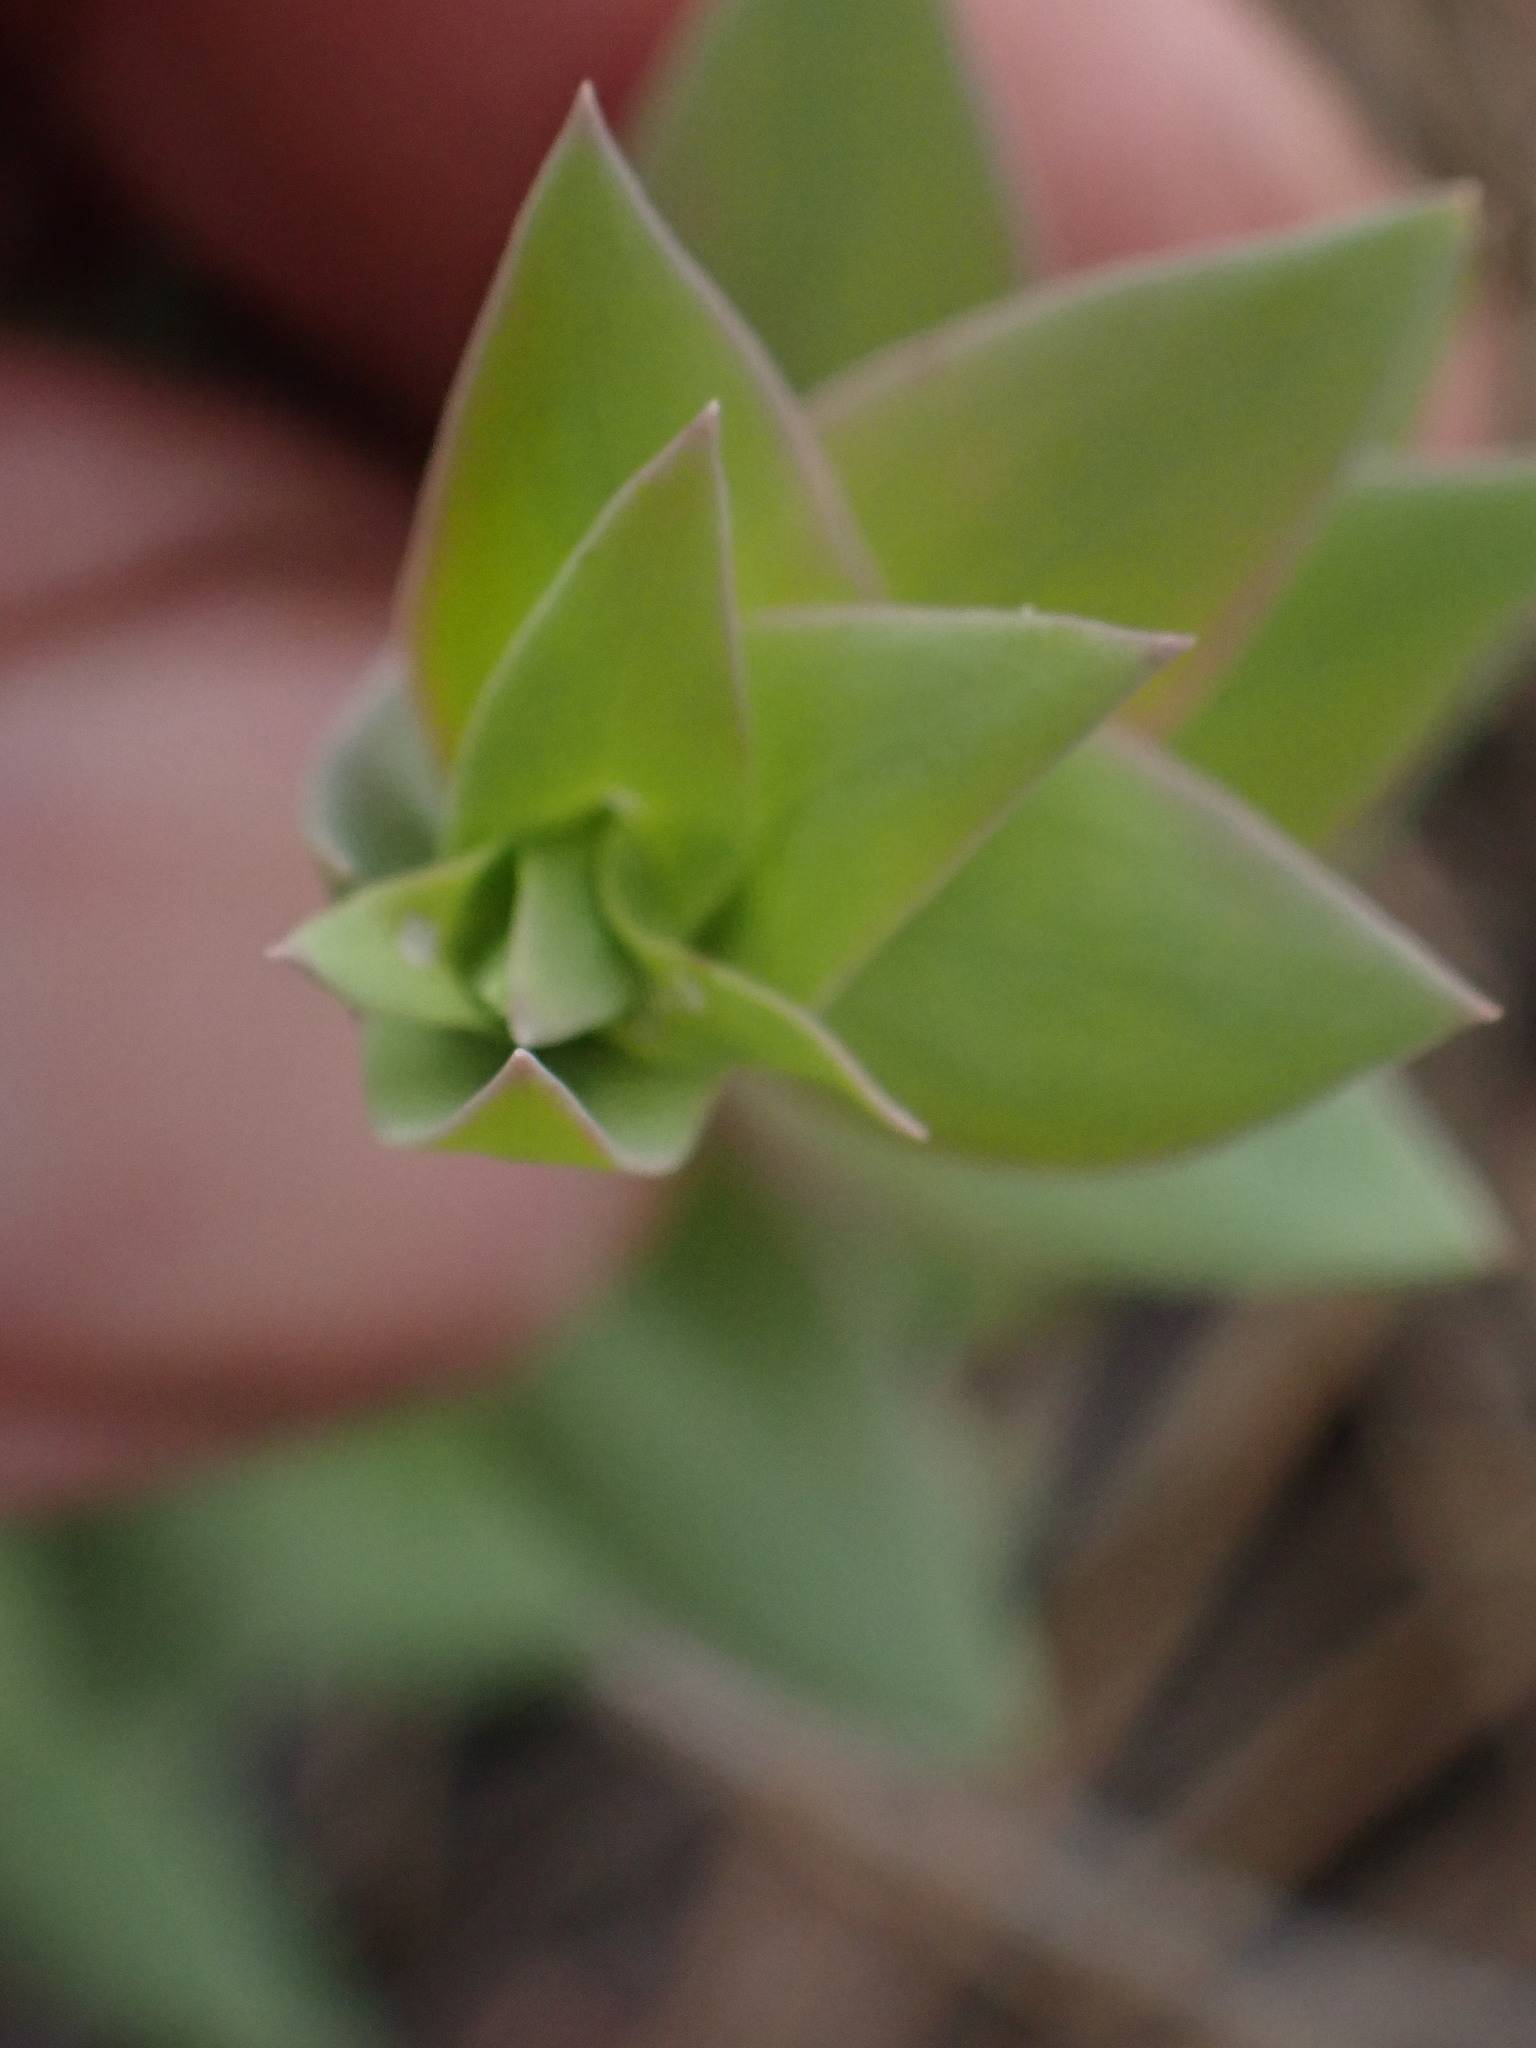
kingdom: Plantae
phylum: Tracheophyta
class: Magnoliopsida
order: Lamiales
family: Plantaginaceae
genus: Linaria
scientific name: Linaria dalmatica
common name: Dalmatian toadflax
